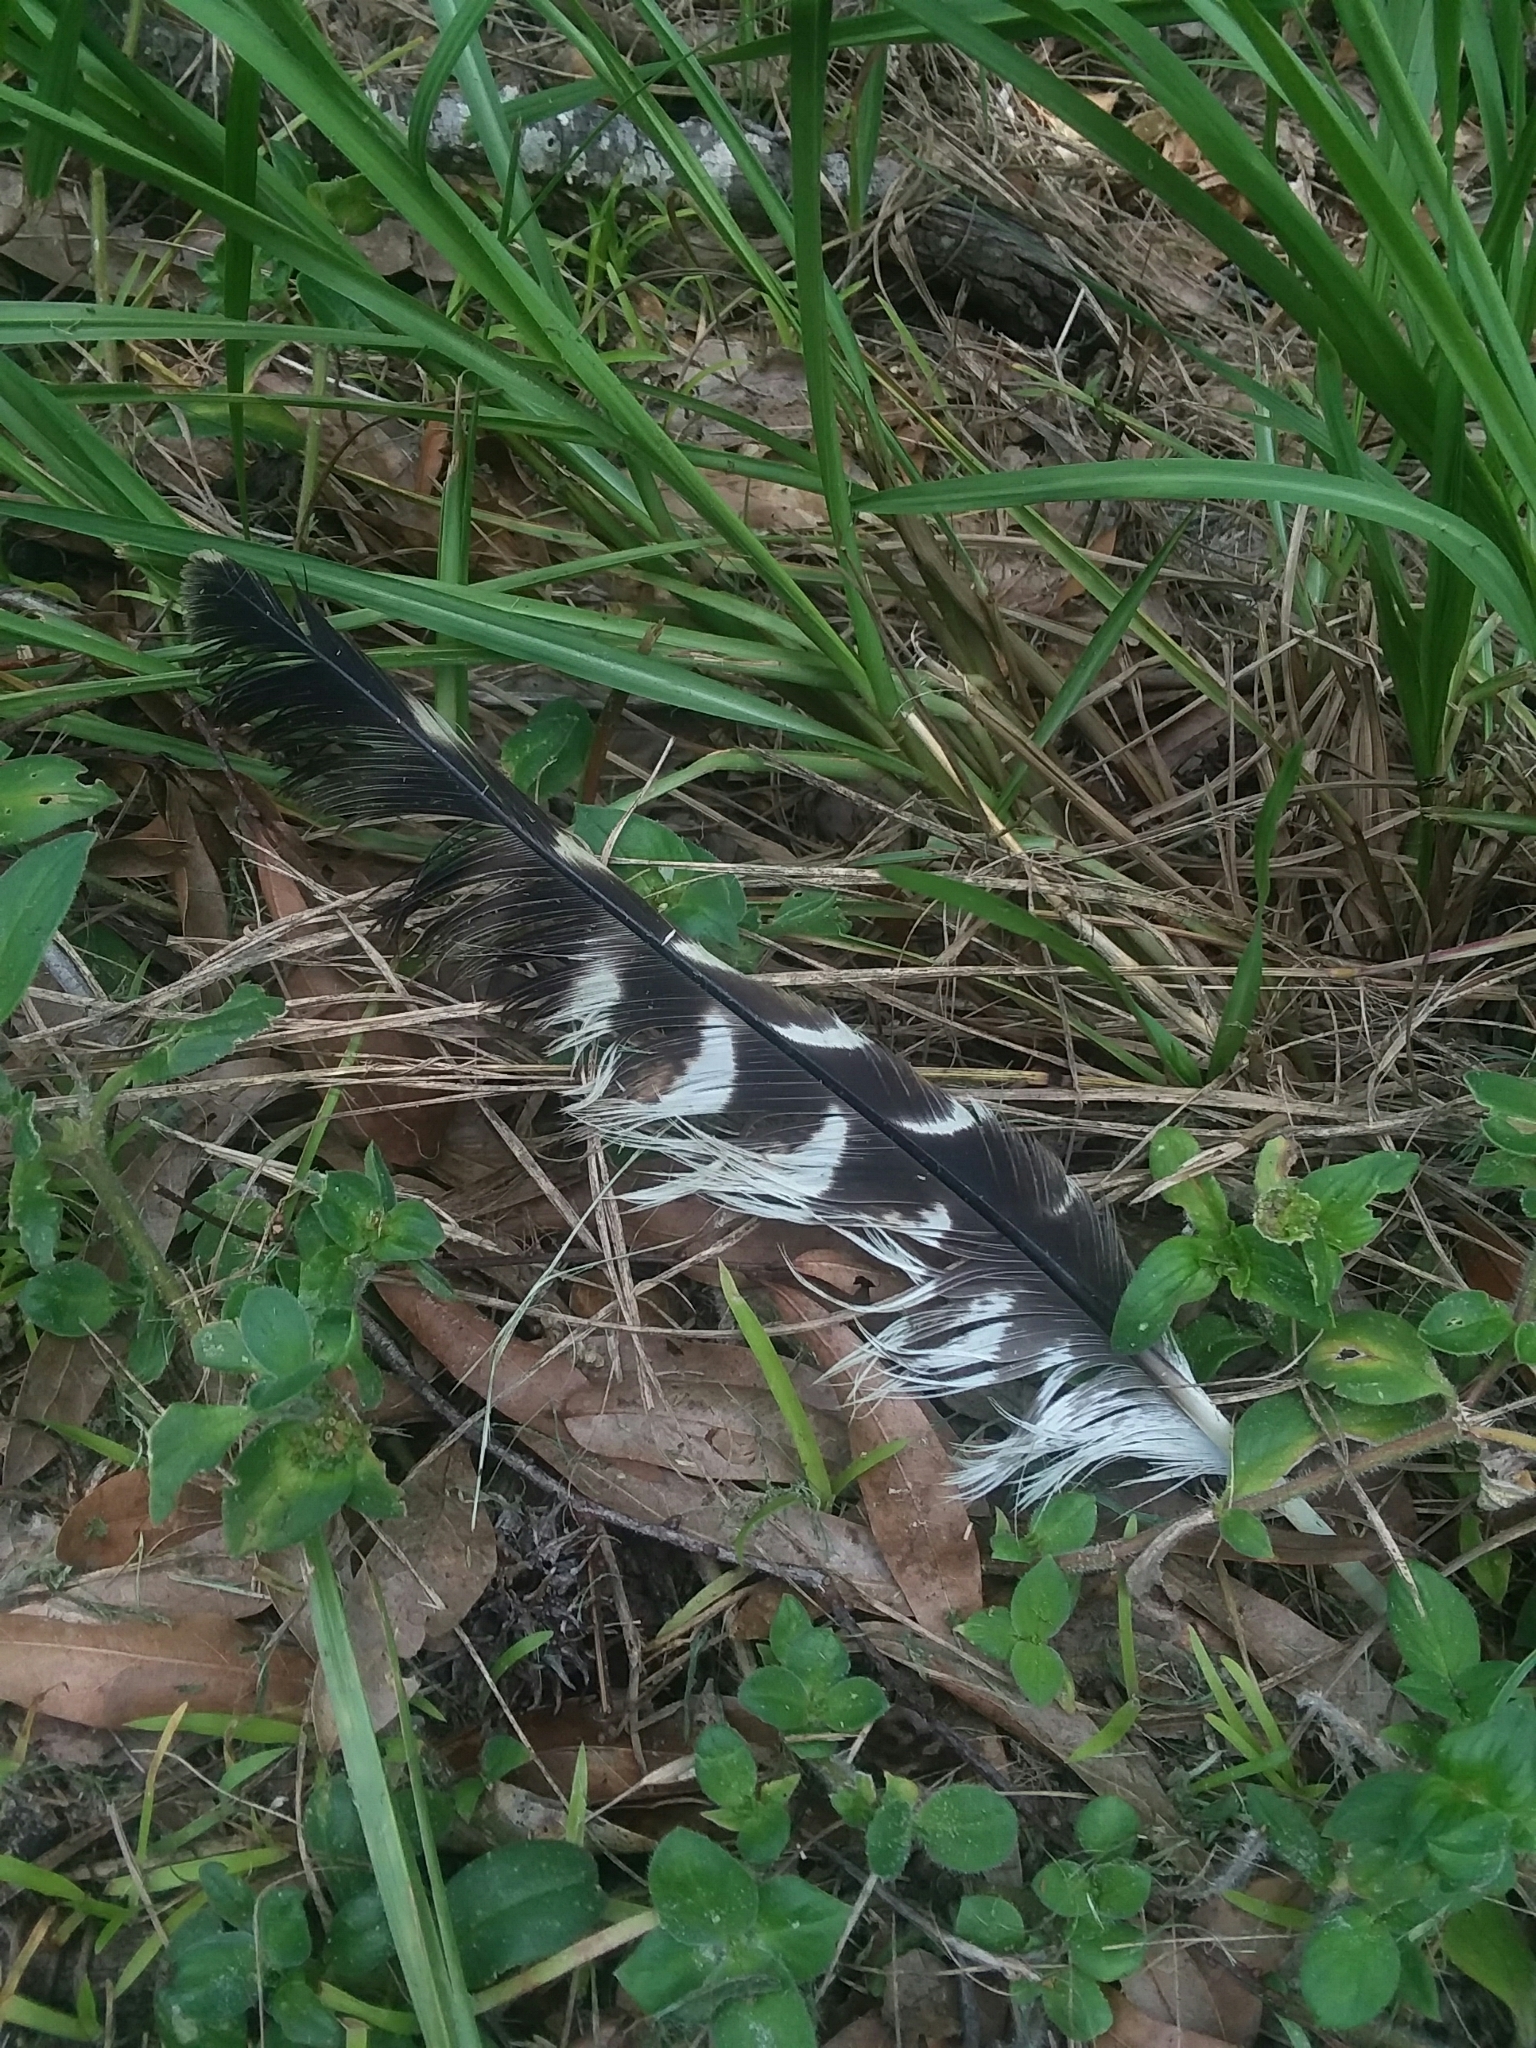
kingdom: Animalia
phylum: Chordata
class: Aves
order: Accipitriformes
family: Accipitridae
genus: Buteo
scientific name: Buteo lineatus
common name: Red-shouldered hawk
